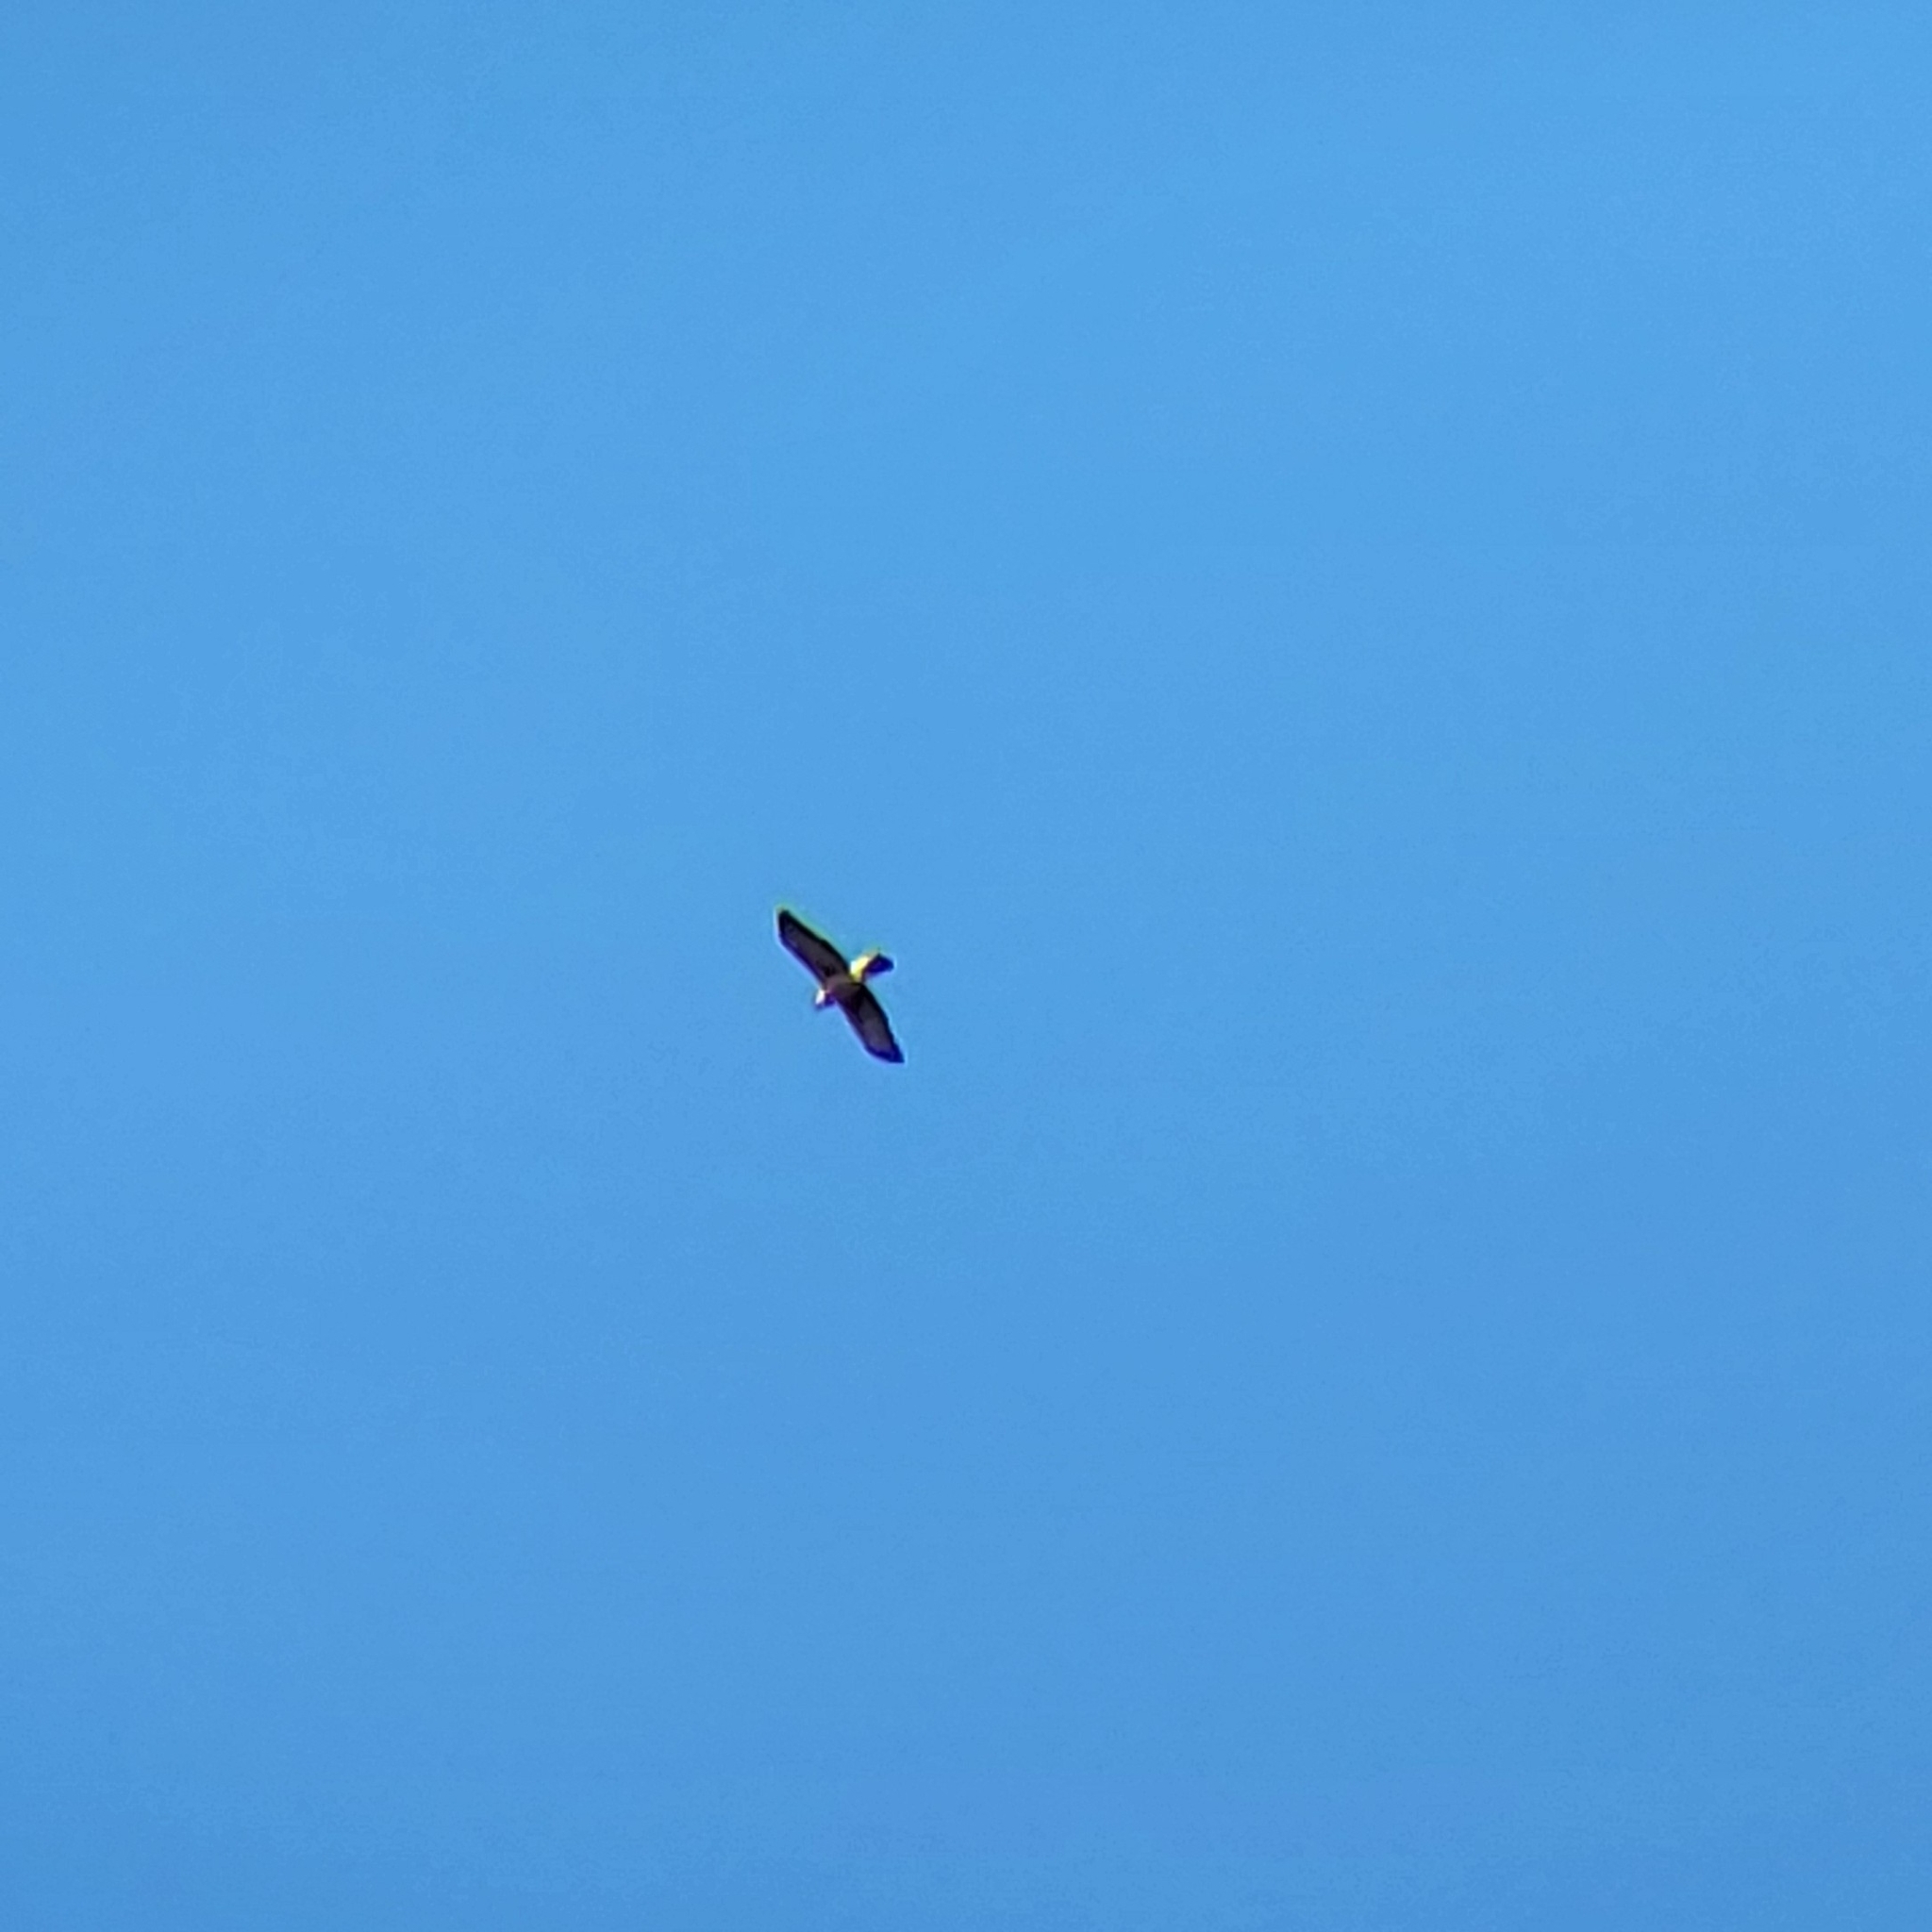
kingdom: Animalia
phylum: Chordata
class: Aves
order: Accipitriformes
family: Accipitridae
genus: Accipiter
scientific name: Accipiter cooperii
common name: Cooper's hawk
